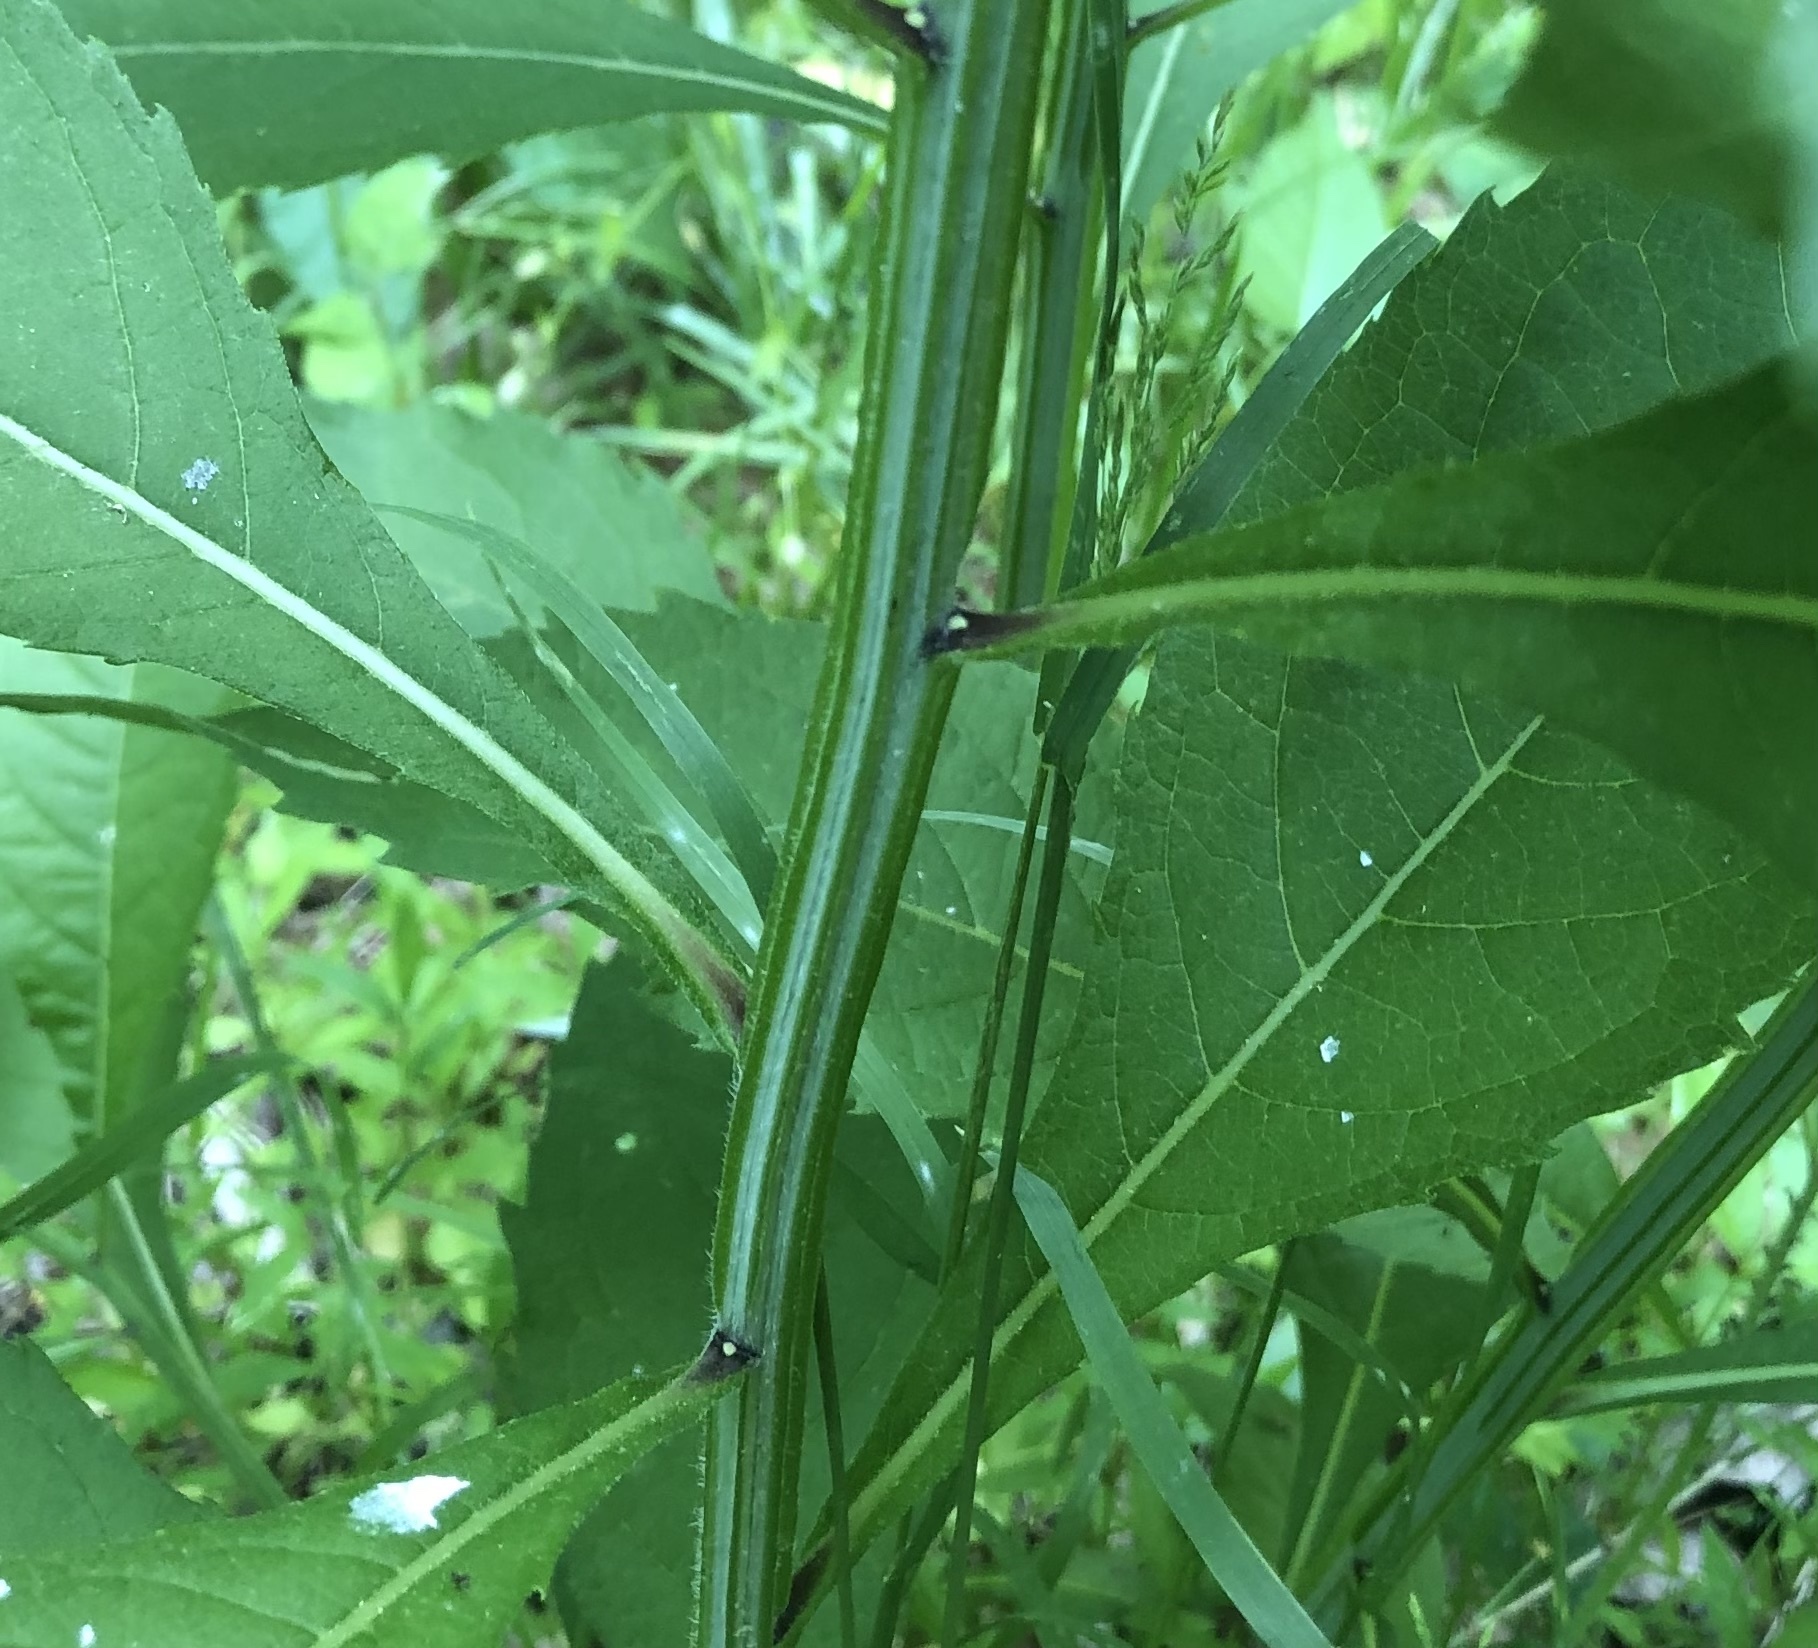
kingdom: Plantae
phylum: Tracheophyta
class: Magnoliopsida
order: Asterales
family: Asteraceae
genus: Verbesina
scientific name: Verbesina alternifolia
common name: Wingstem
